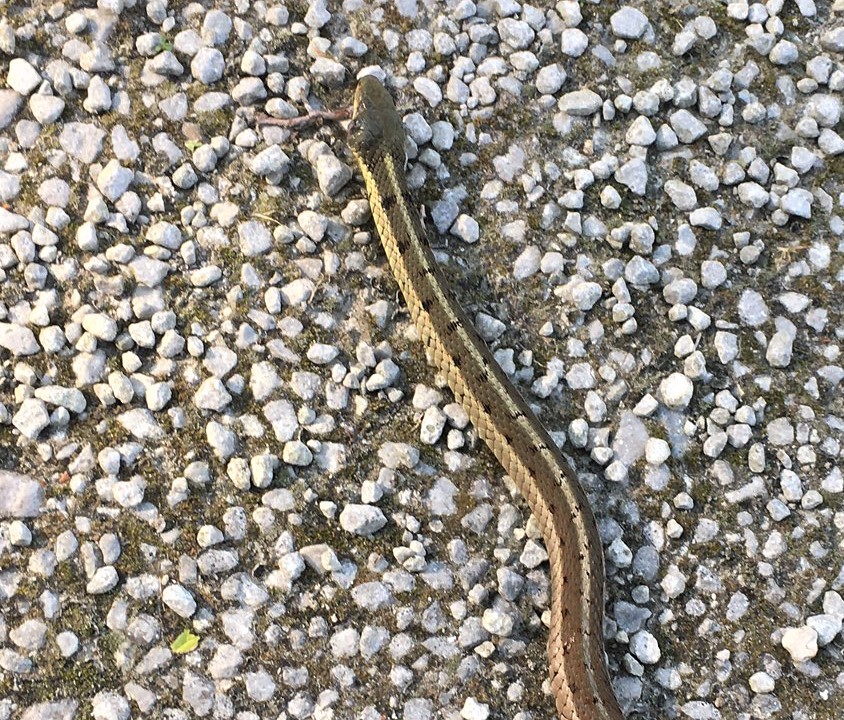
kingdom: Animalia
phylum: Chordata
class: Squamata
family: Colubridae
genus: Thamnophis
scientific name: Thamnophis sirtalis
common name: Common garter snake
